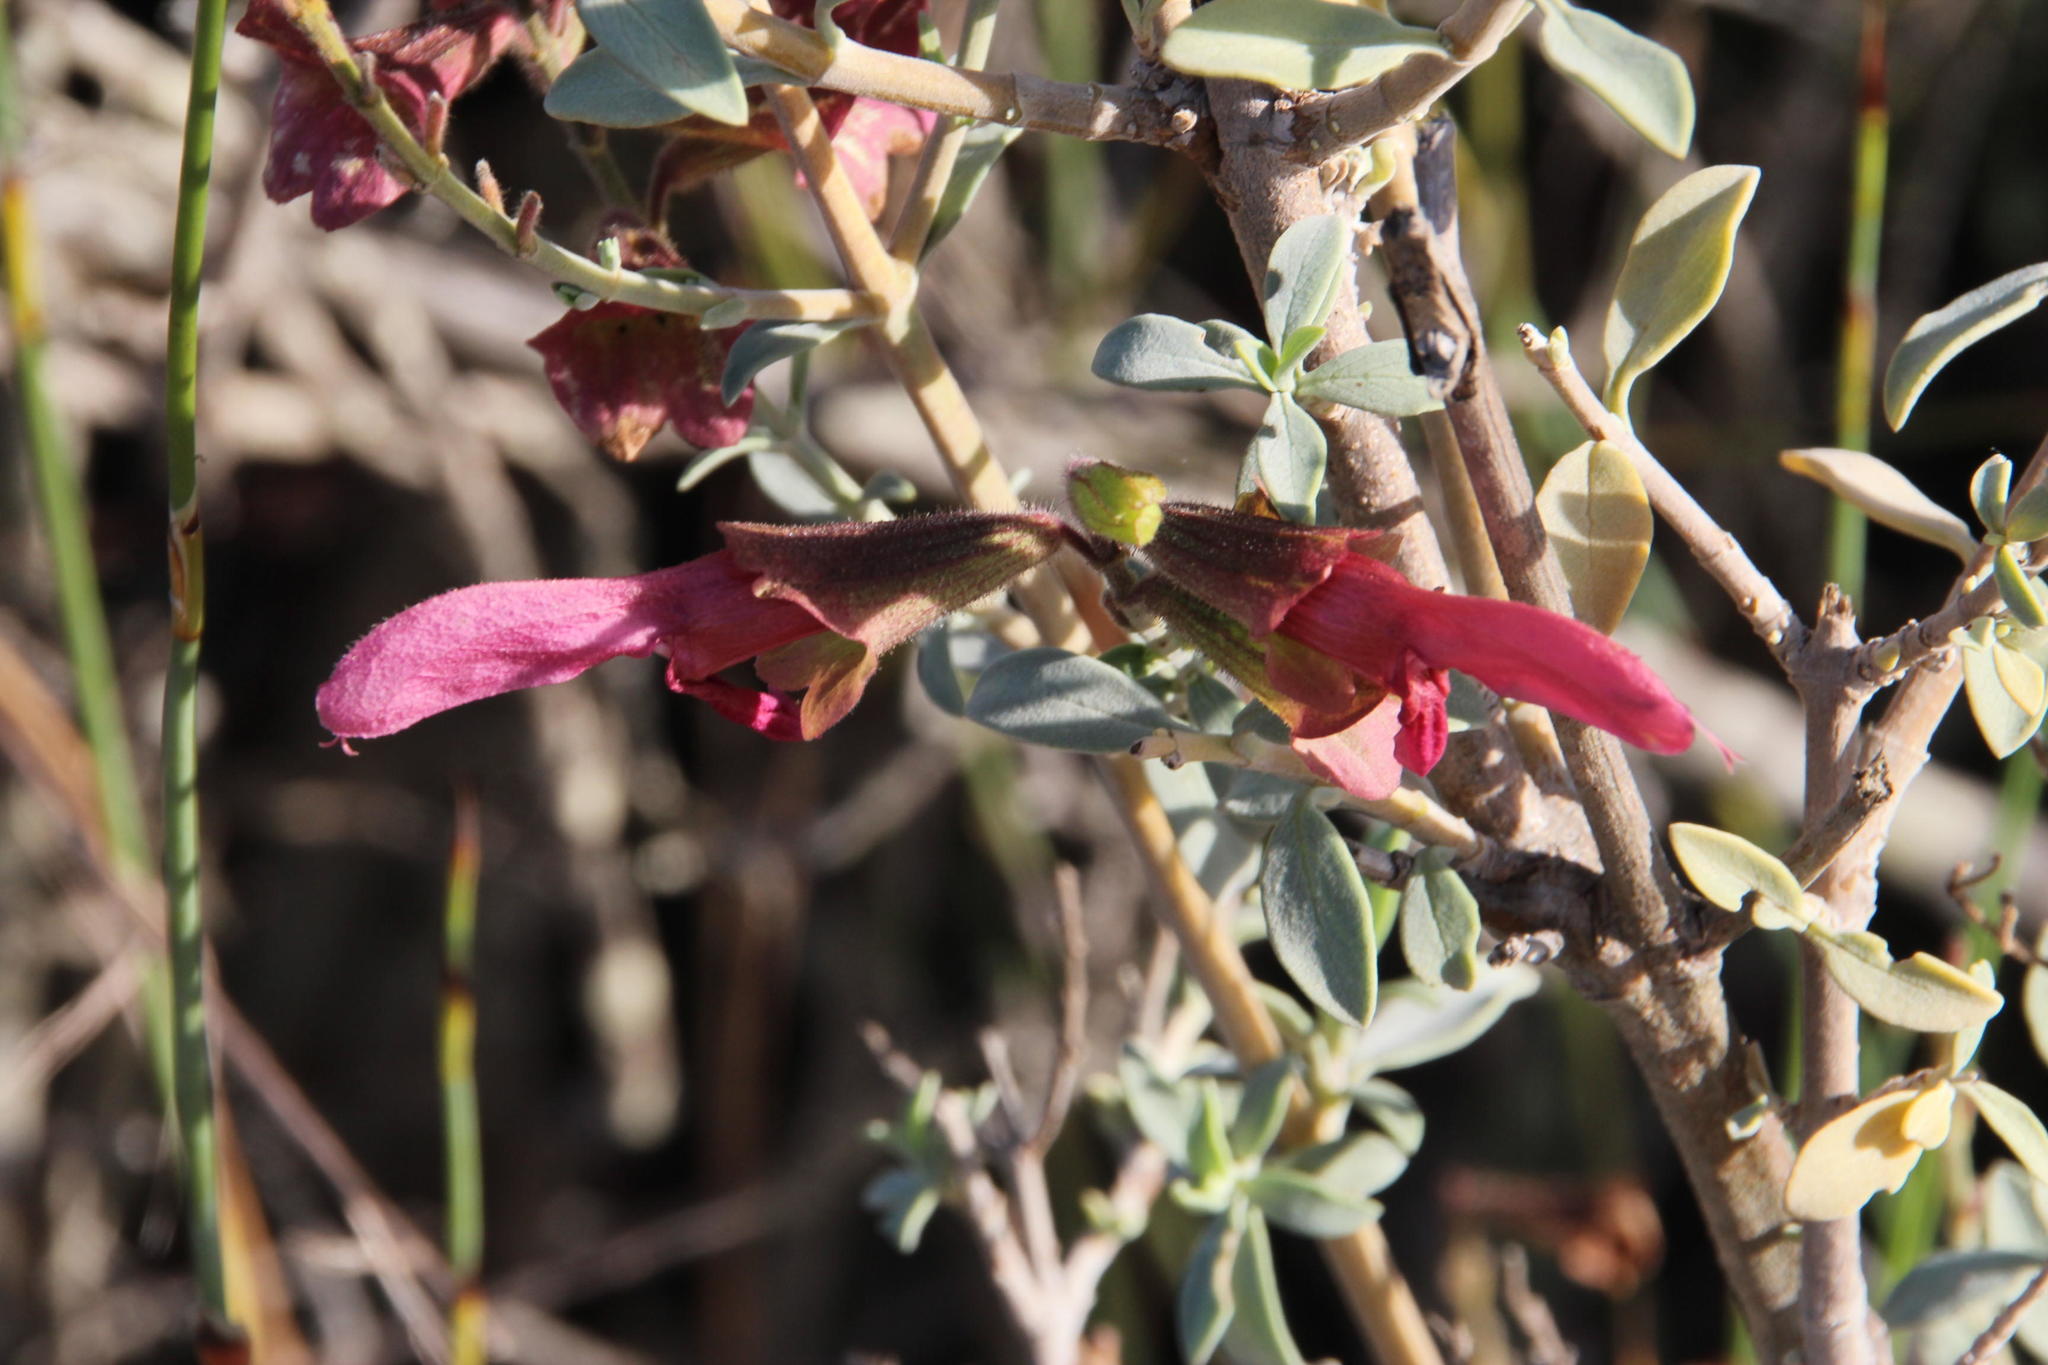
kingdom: Plantae
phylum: Tracheophyta
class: Magnoliopsida
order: Lamiales
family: Lamiaceae
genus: Salvia
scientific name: Salvia lanceolata
